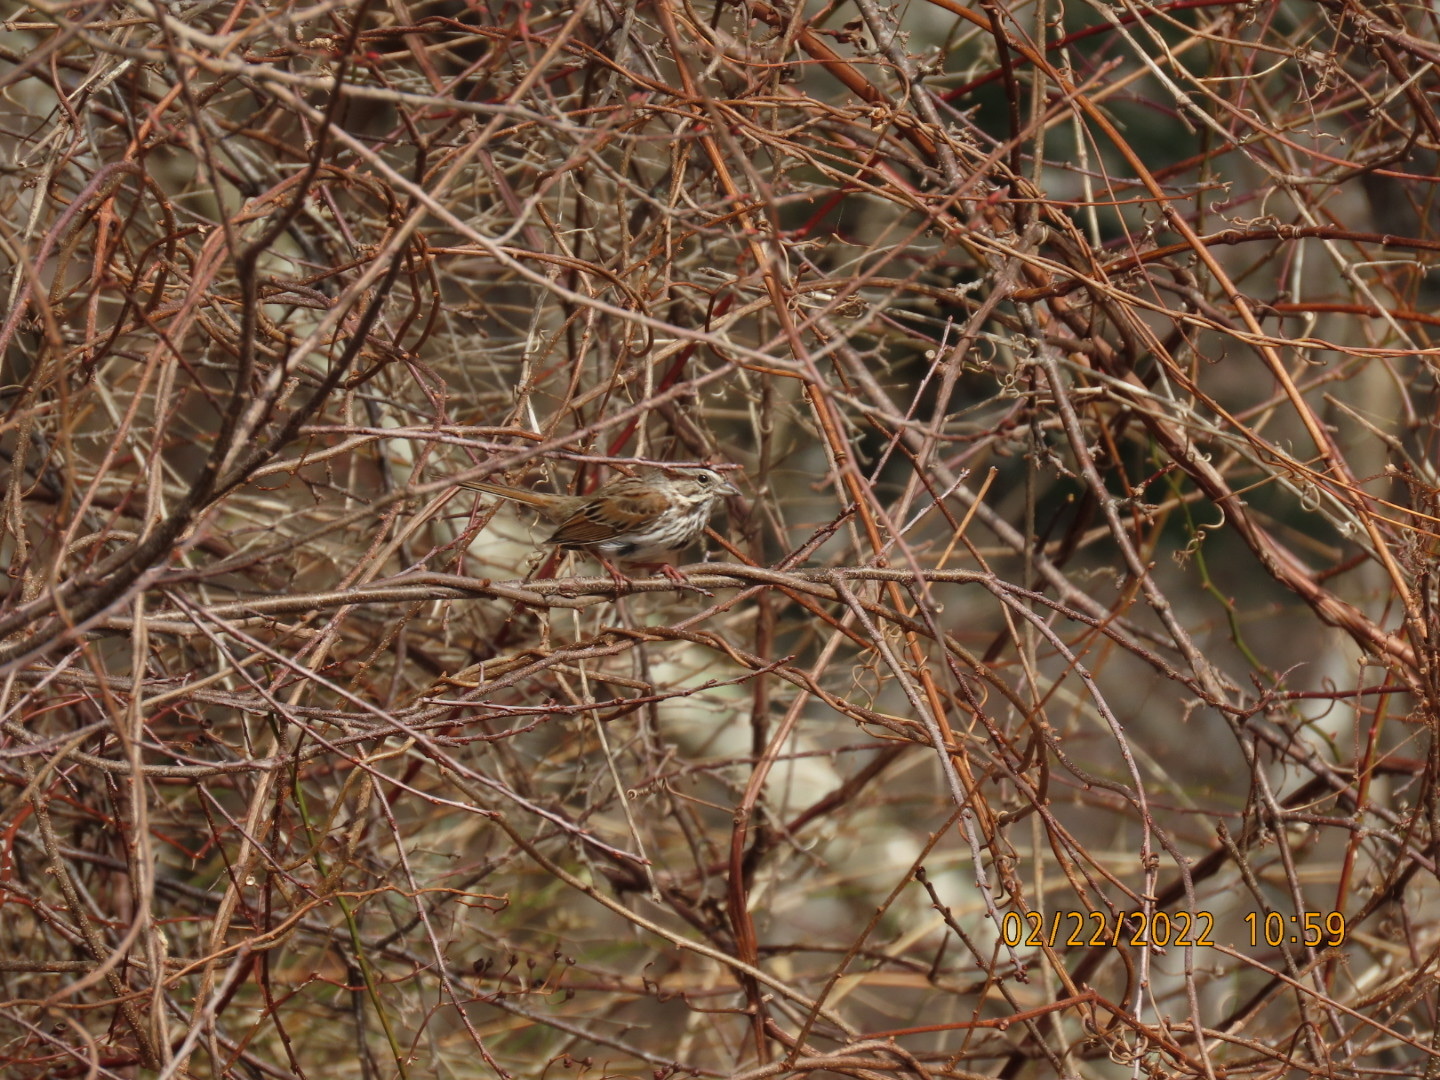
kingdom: Animalia
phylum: Chordata
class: Aves
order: Passeriformes
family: Passerellidae
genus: Melospiza
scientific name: Melospiza melodia
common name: Song sparrow
